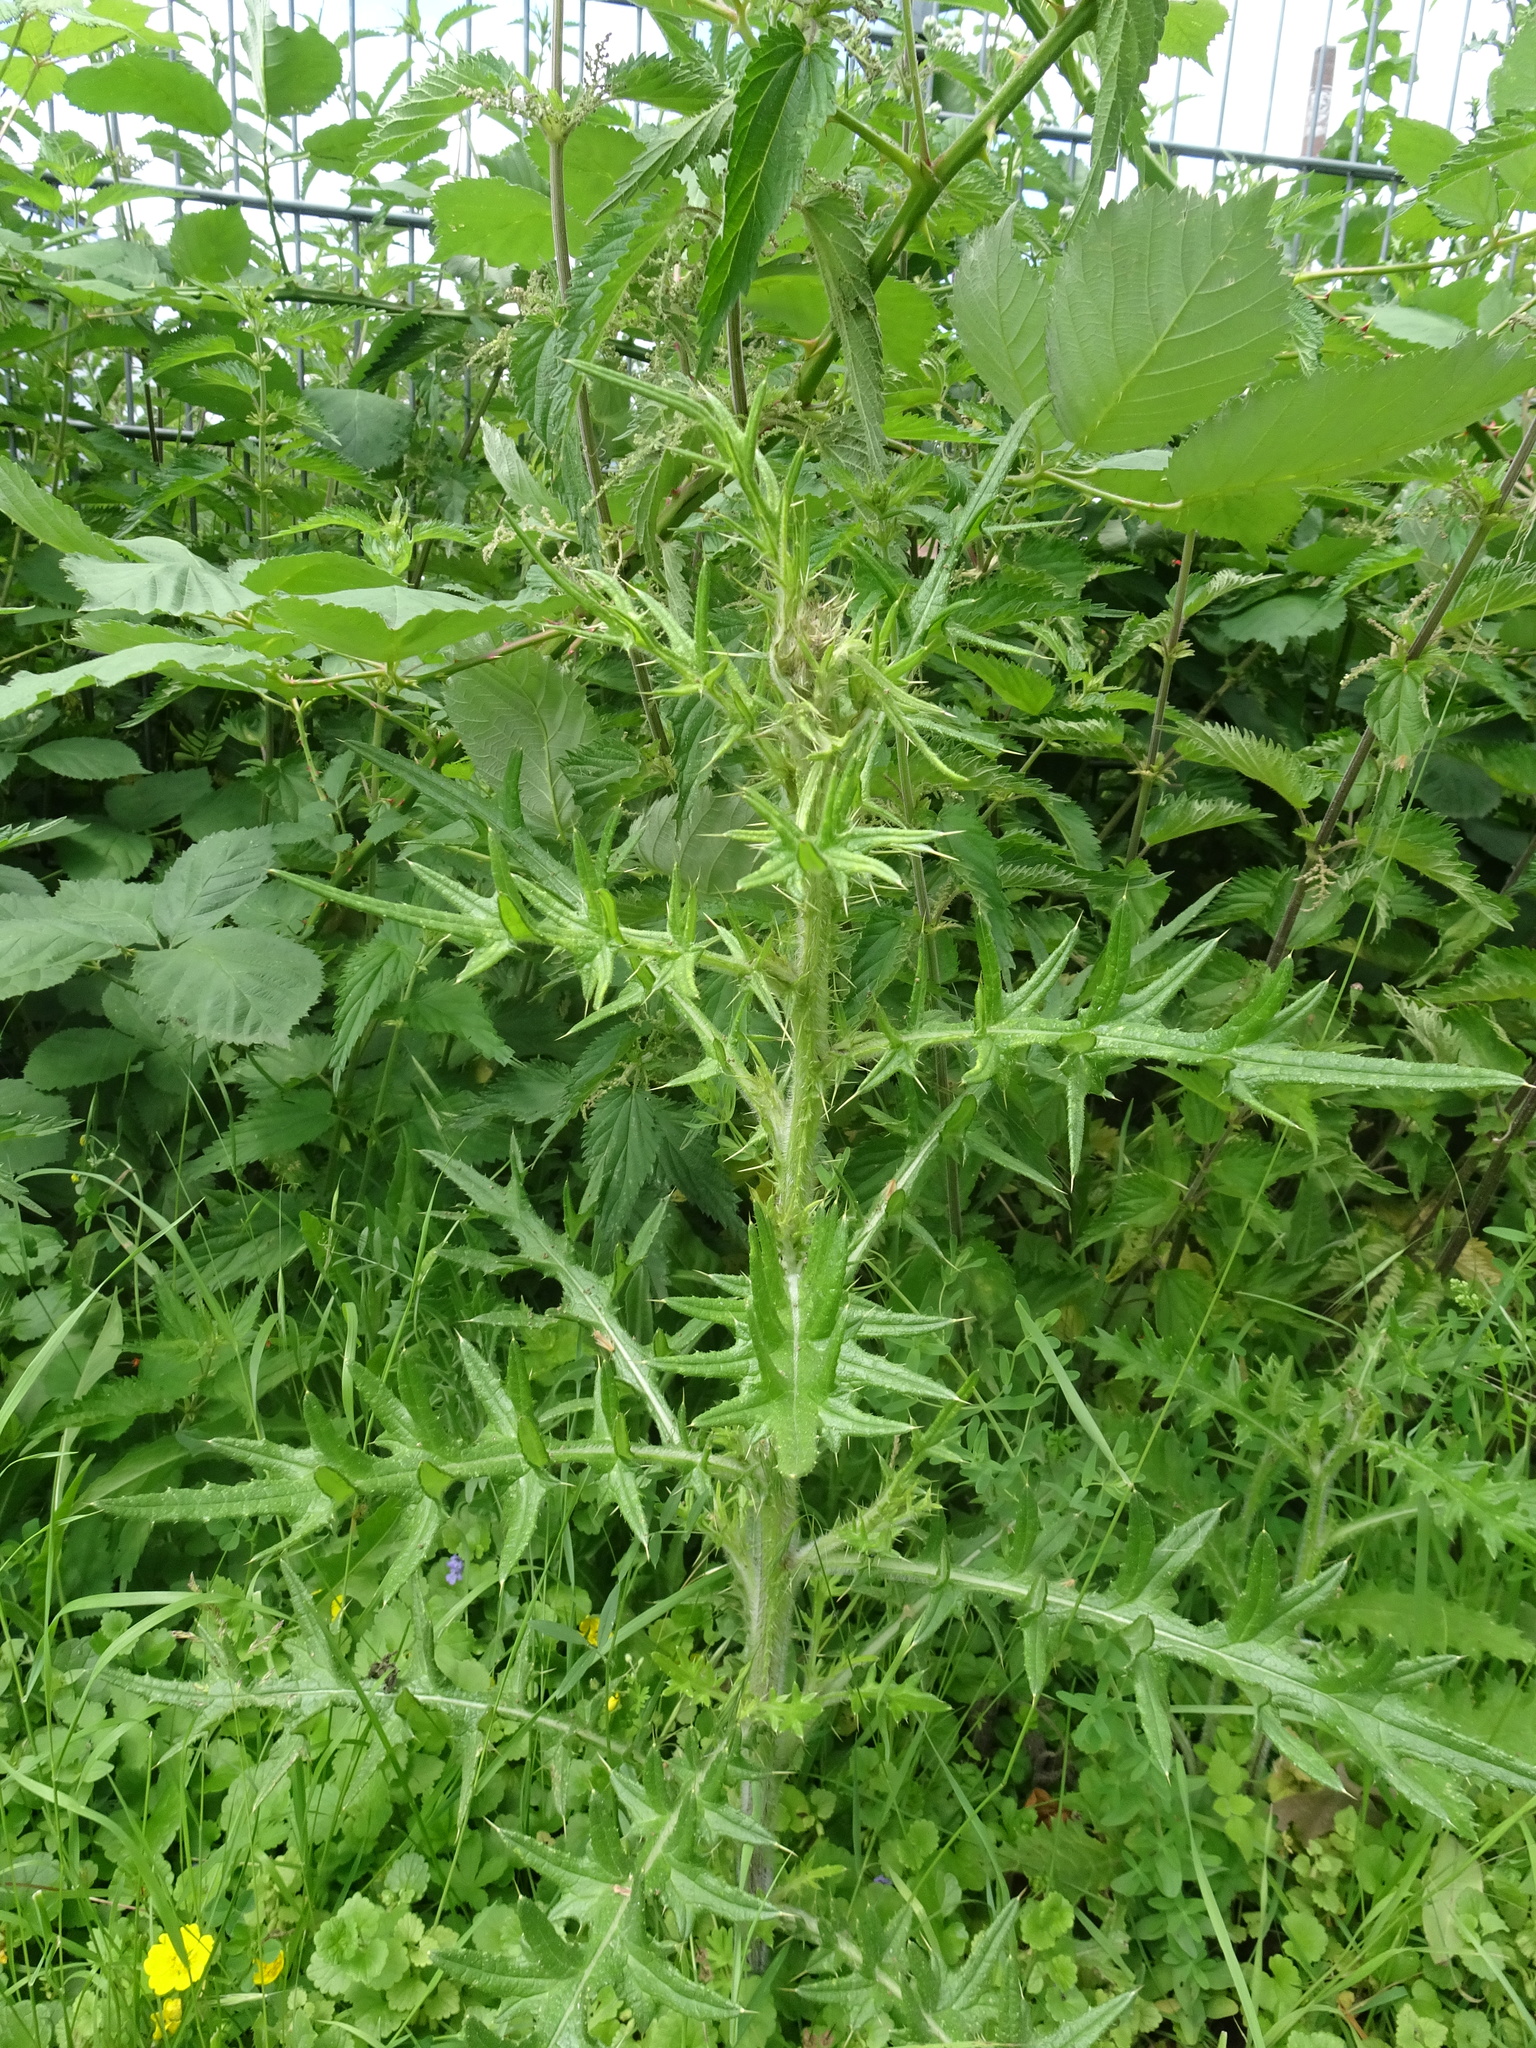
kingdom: Plantae
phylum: Tracheophyta
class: Magnoliopsida
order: Asterales
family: Asteraceae
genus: Cirsium
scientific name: Cirsium vulgare
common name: Bull thistle
